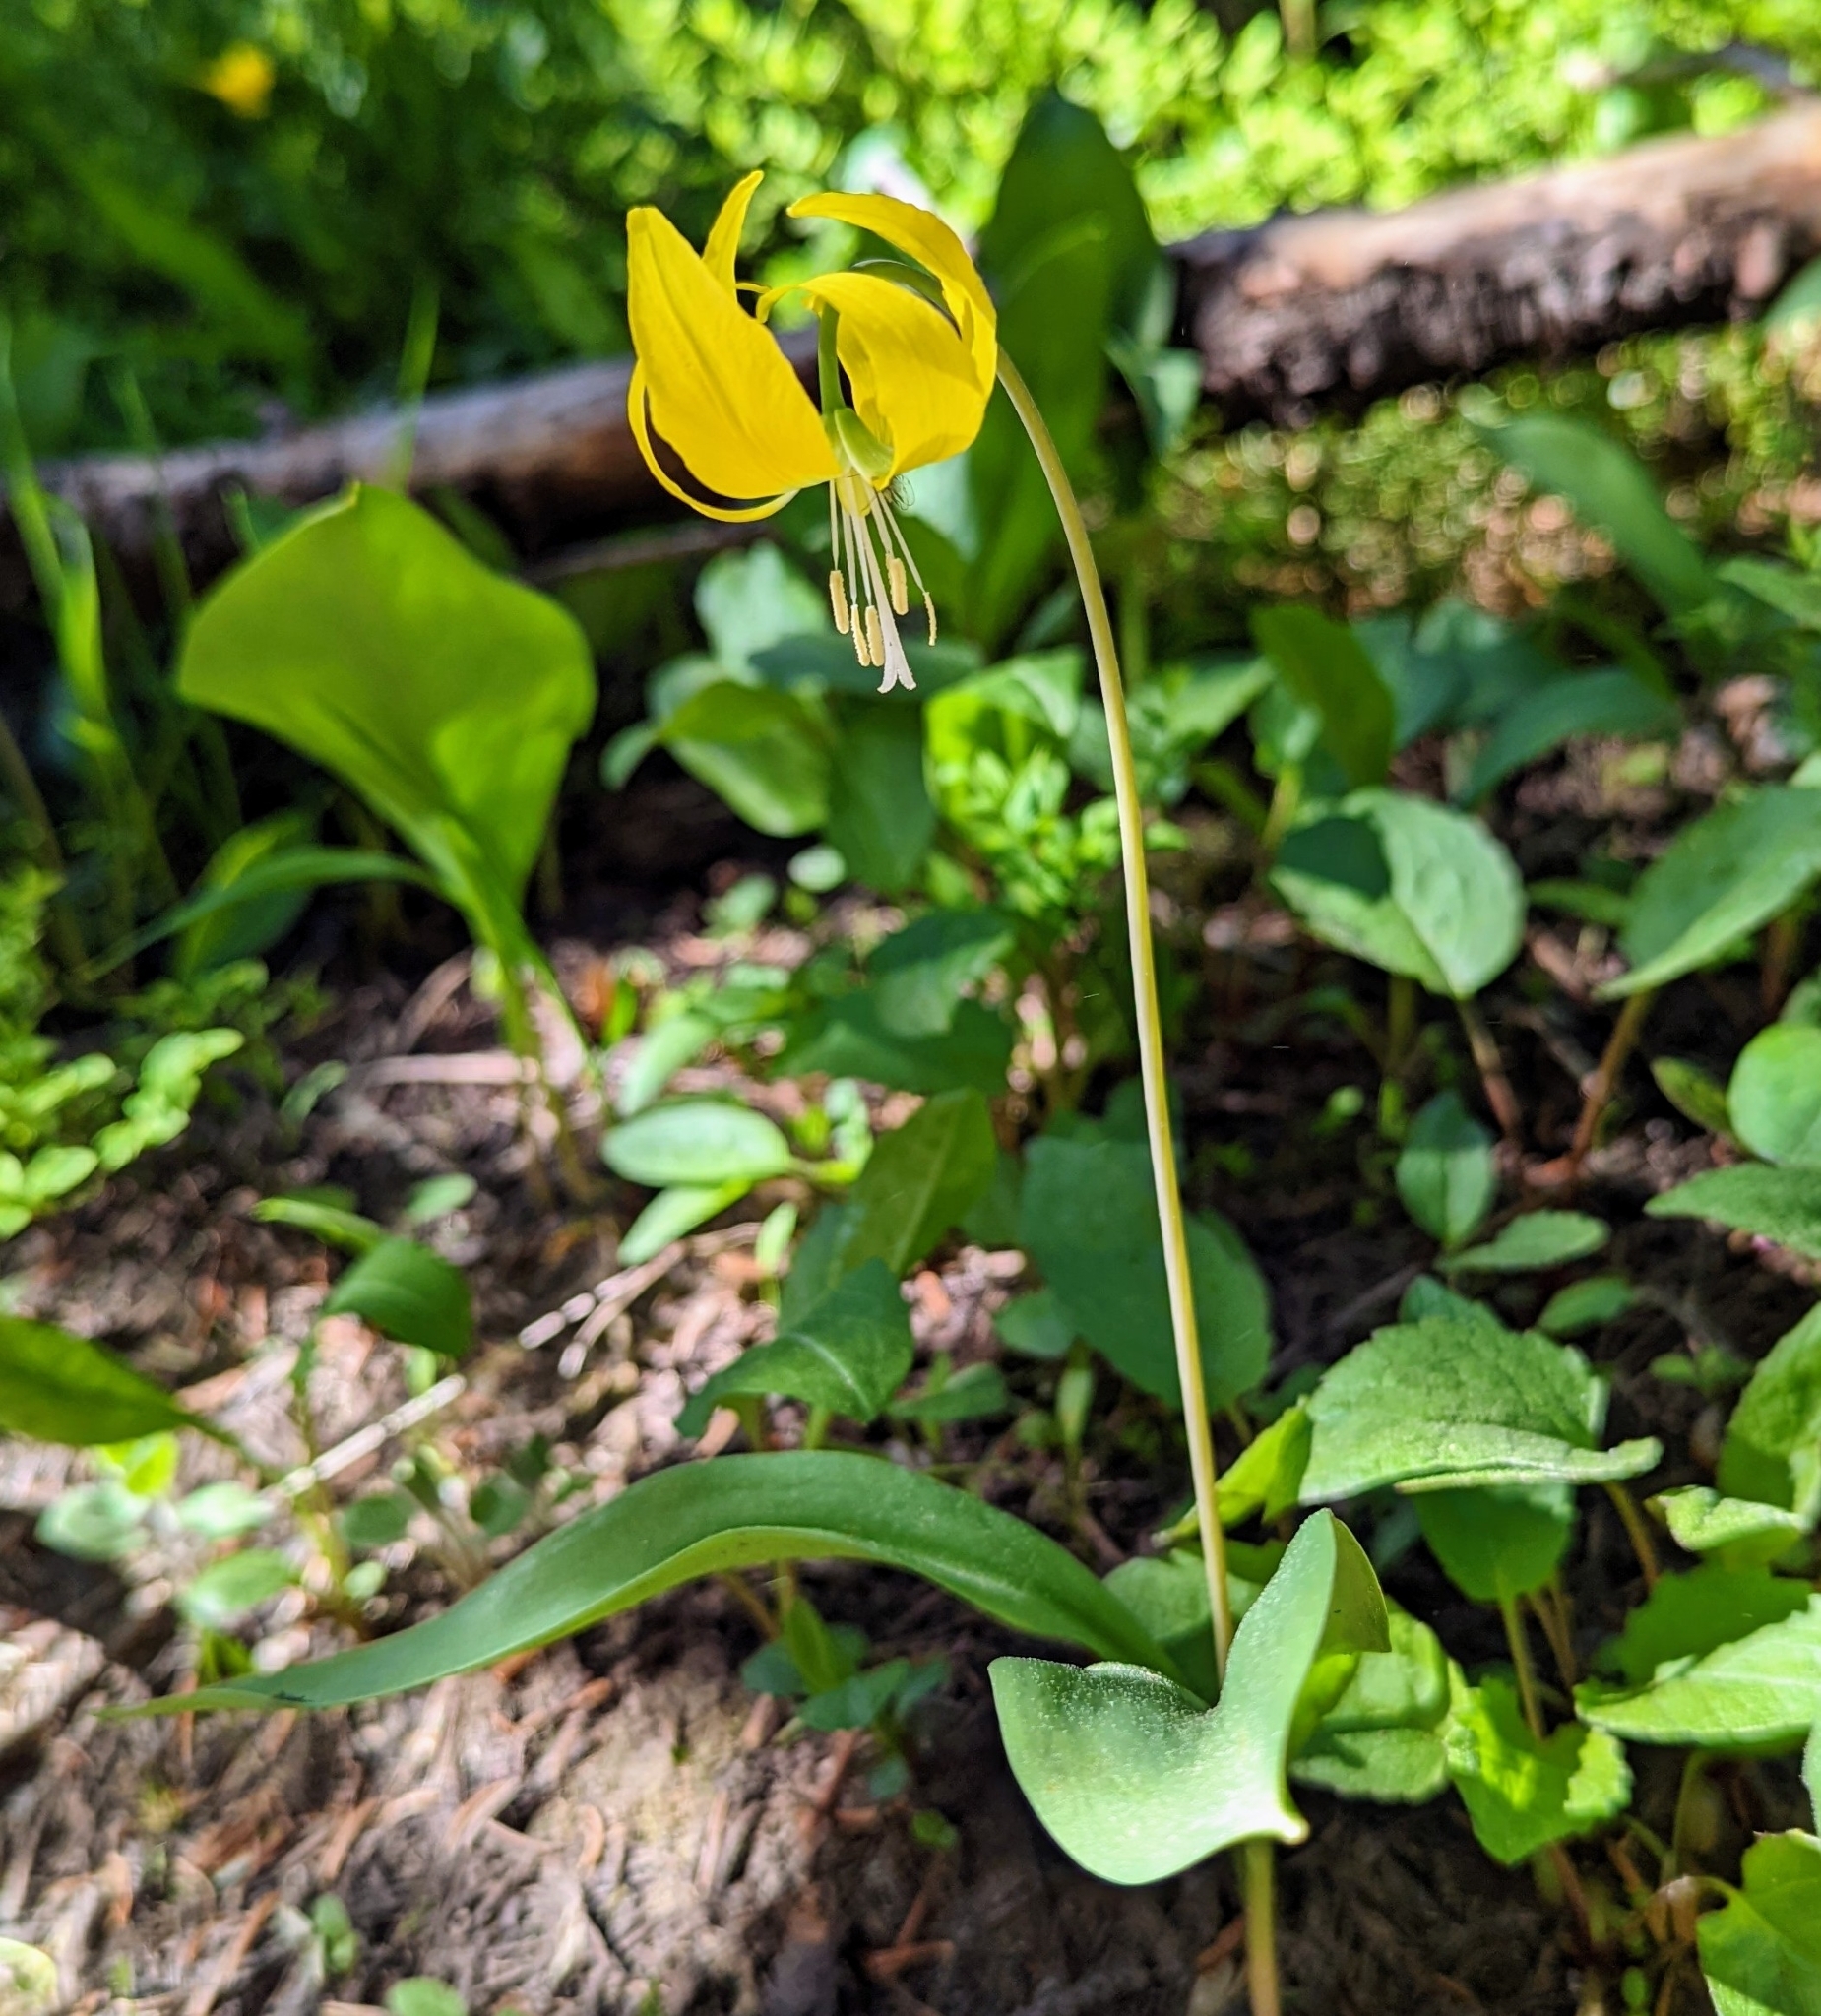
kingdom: Plantae
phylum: Tracheophyta
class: Liliopsida
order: Liliales
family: Liliaceae
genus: Erythronium
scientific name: Erythronium grandiflorum
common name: Avalanche-lily
